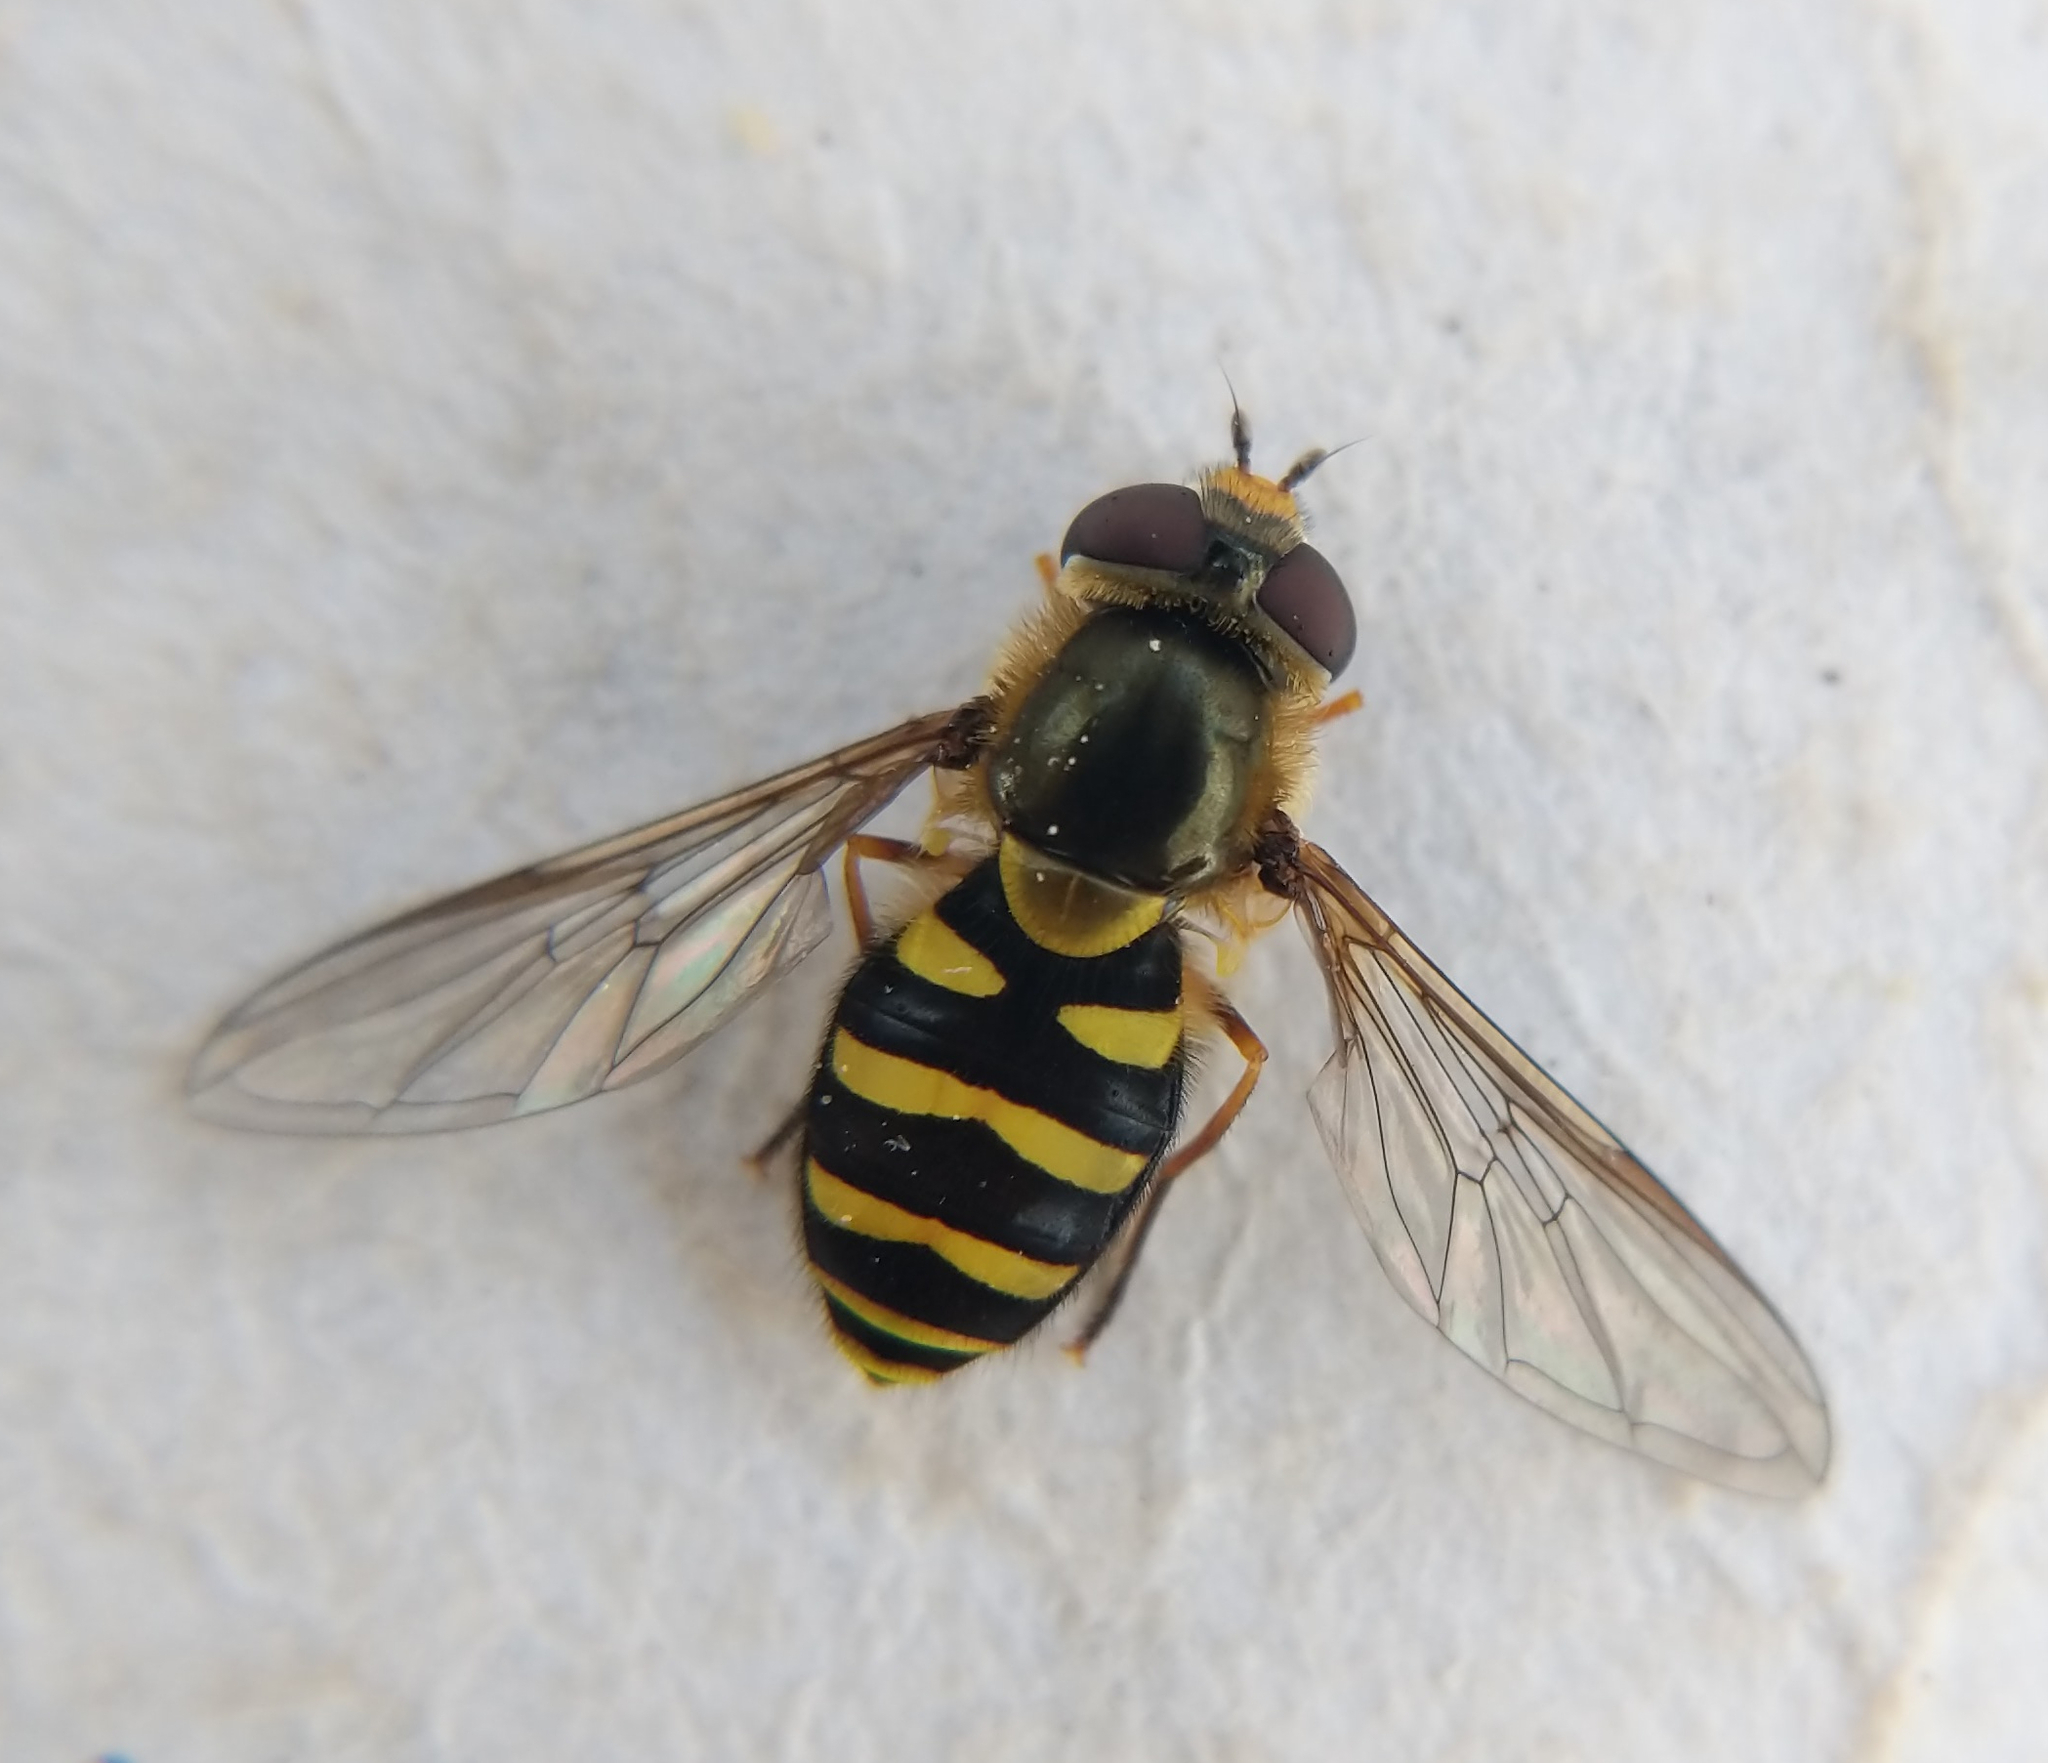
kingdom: Animalia
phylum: Arthropoda
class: Insecta
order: Diptera
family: Syrphidae
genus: Syrphus
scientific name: Syrphus opinator
